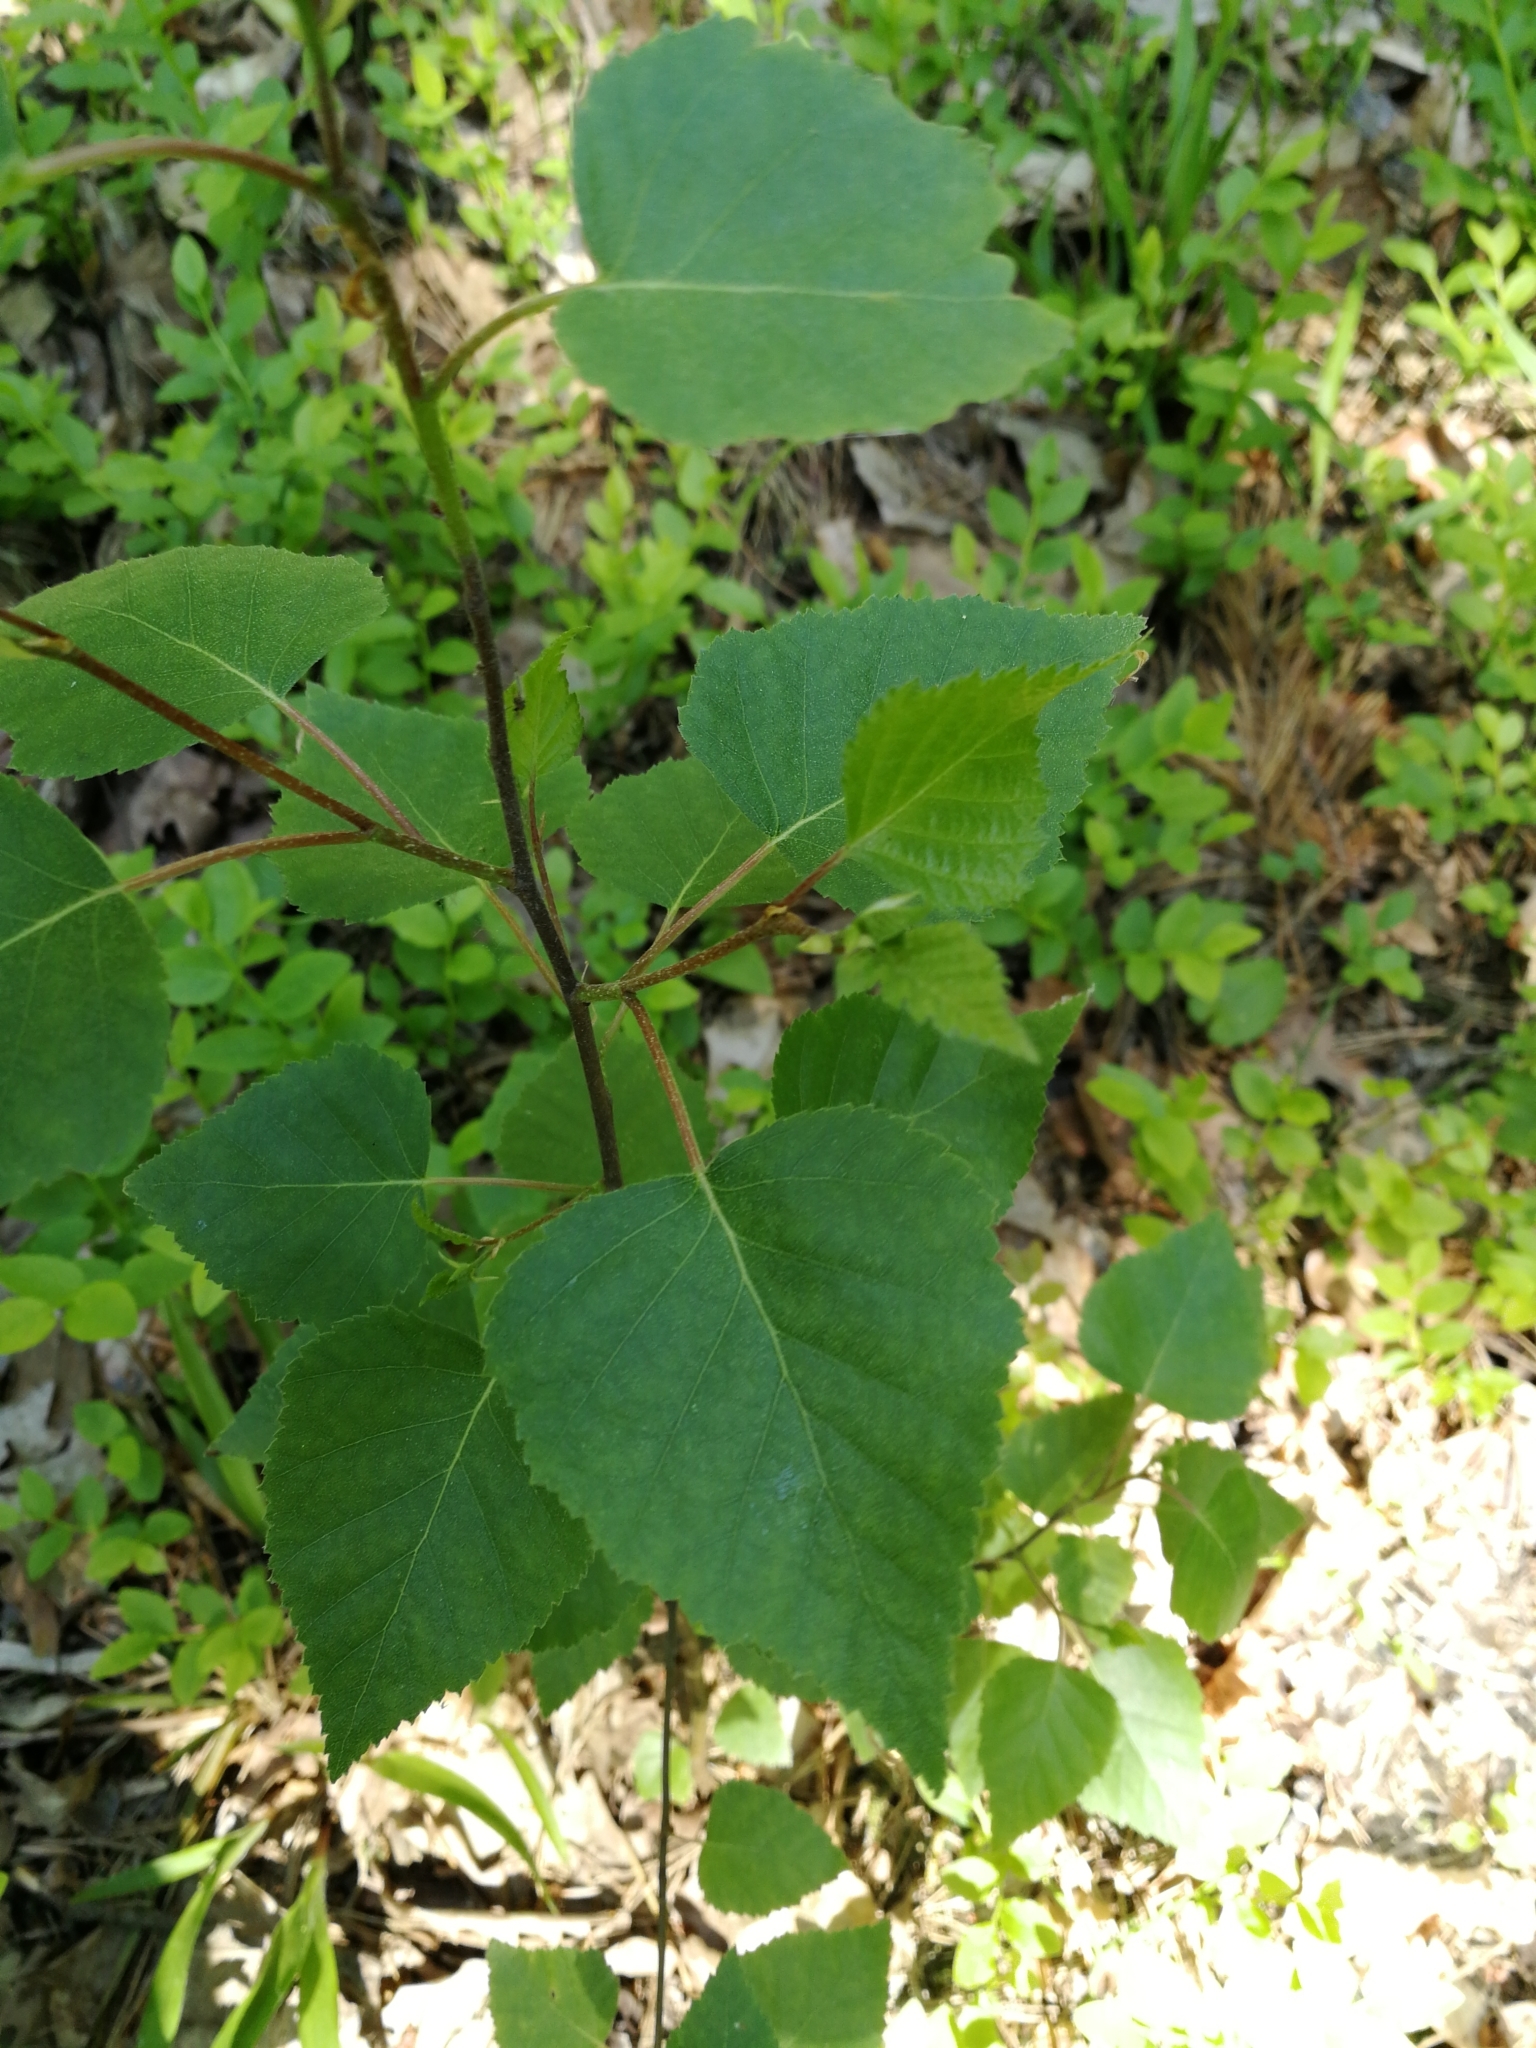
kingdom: Plantae
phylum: Tracheophyta
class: Magnoliopsida
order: Fagales
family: Betulaceae
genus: Betula
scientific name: Betula pendula
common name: Silver birch
